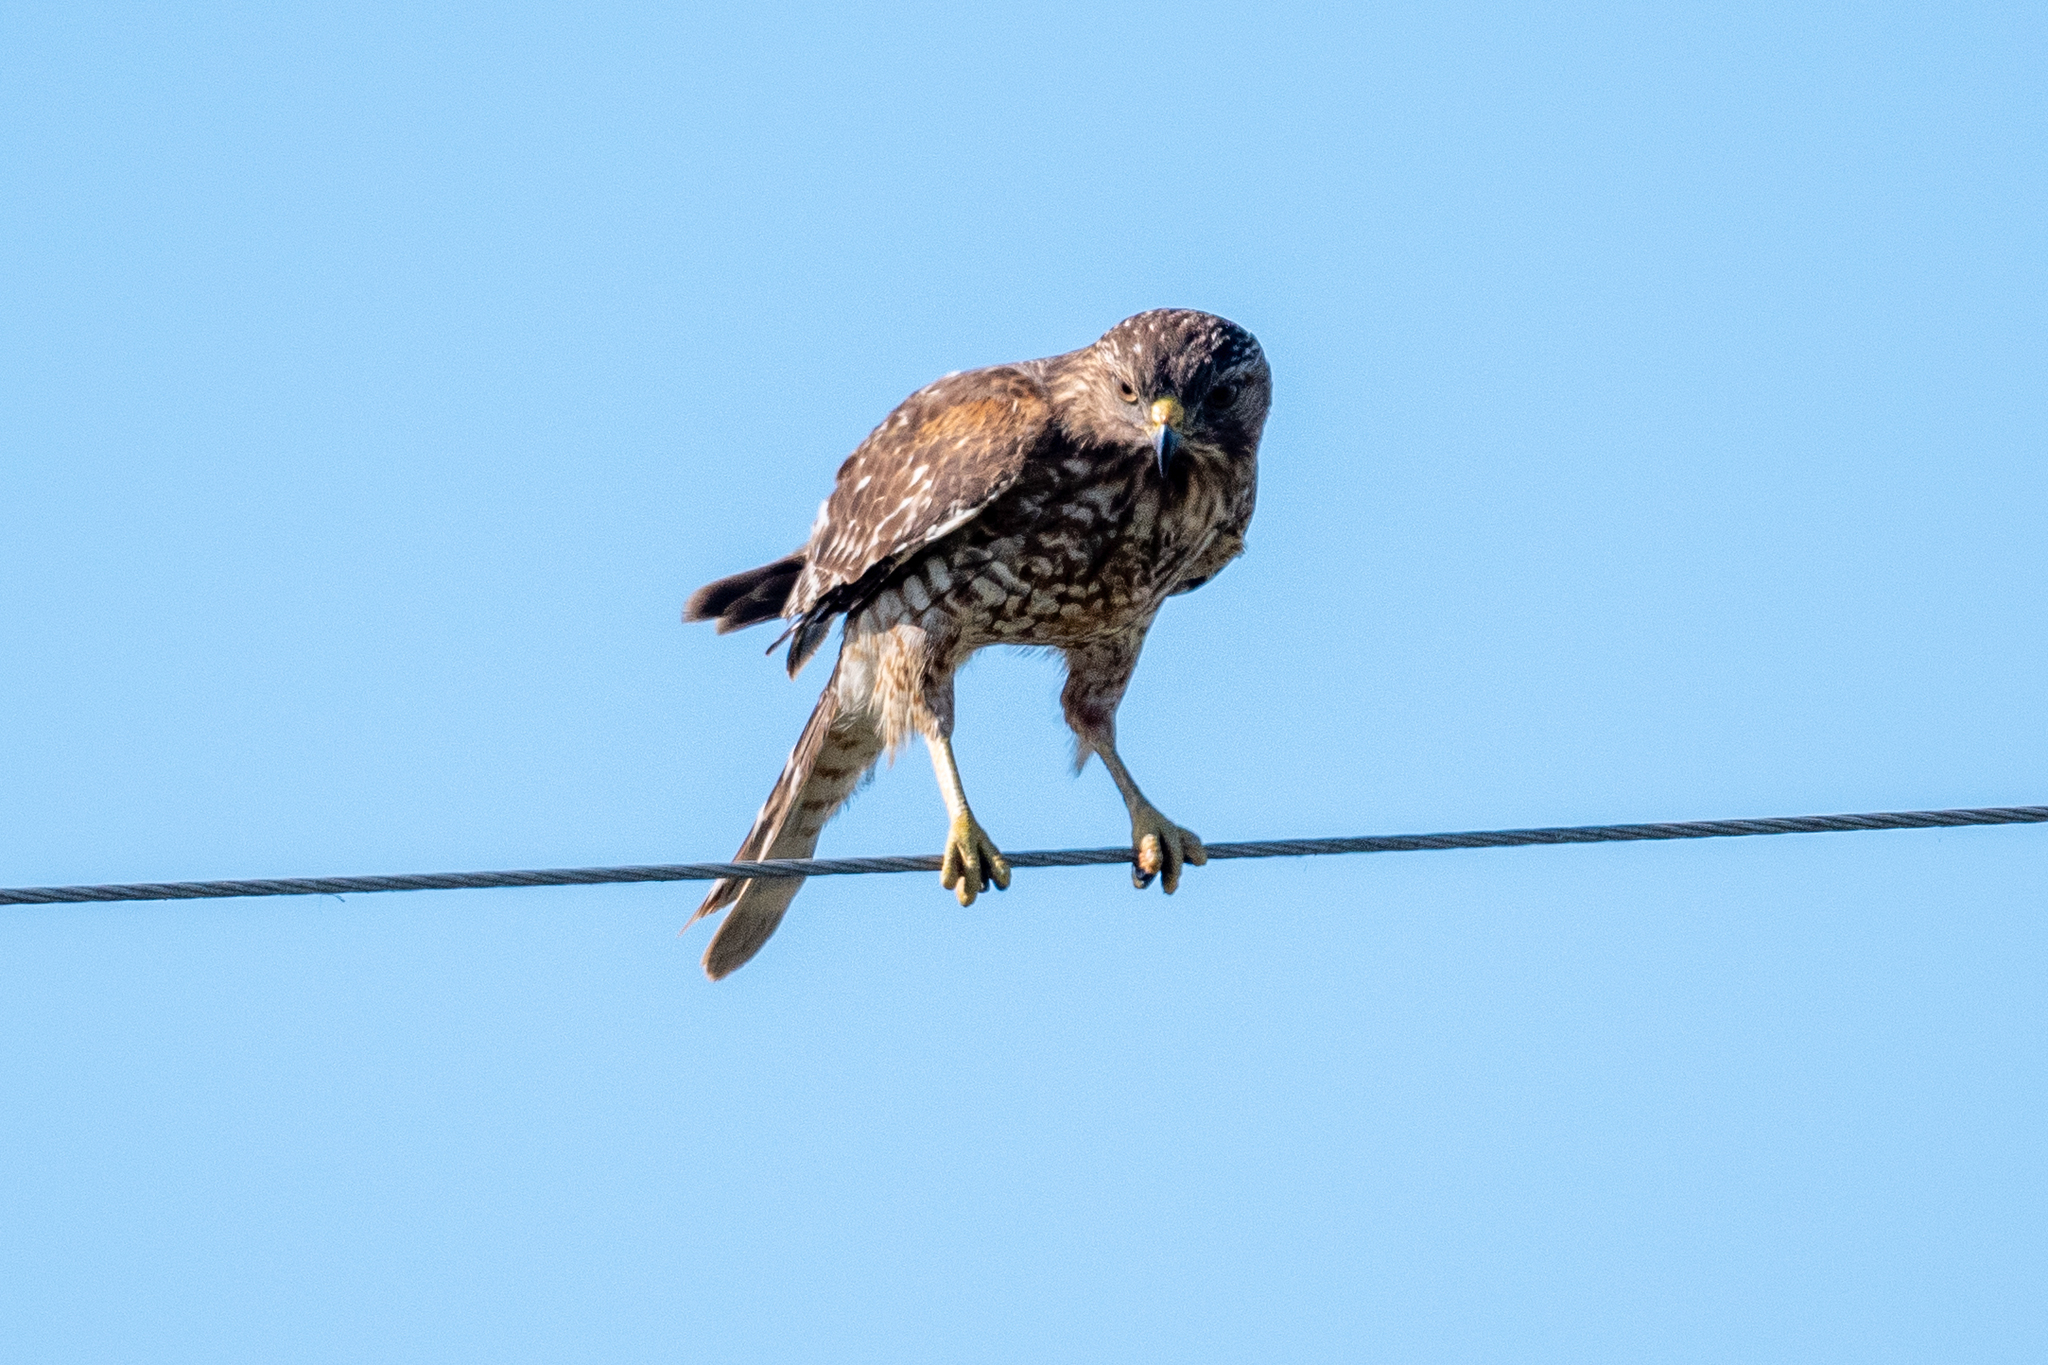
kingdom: Animalia
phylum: Chordata
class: Aves
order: Accipitriformes
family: Accipitridae
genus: Buteo
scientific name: Buteo lineatus
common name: Red-shouldered hawk
